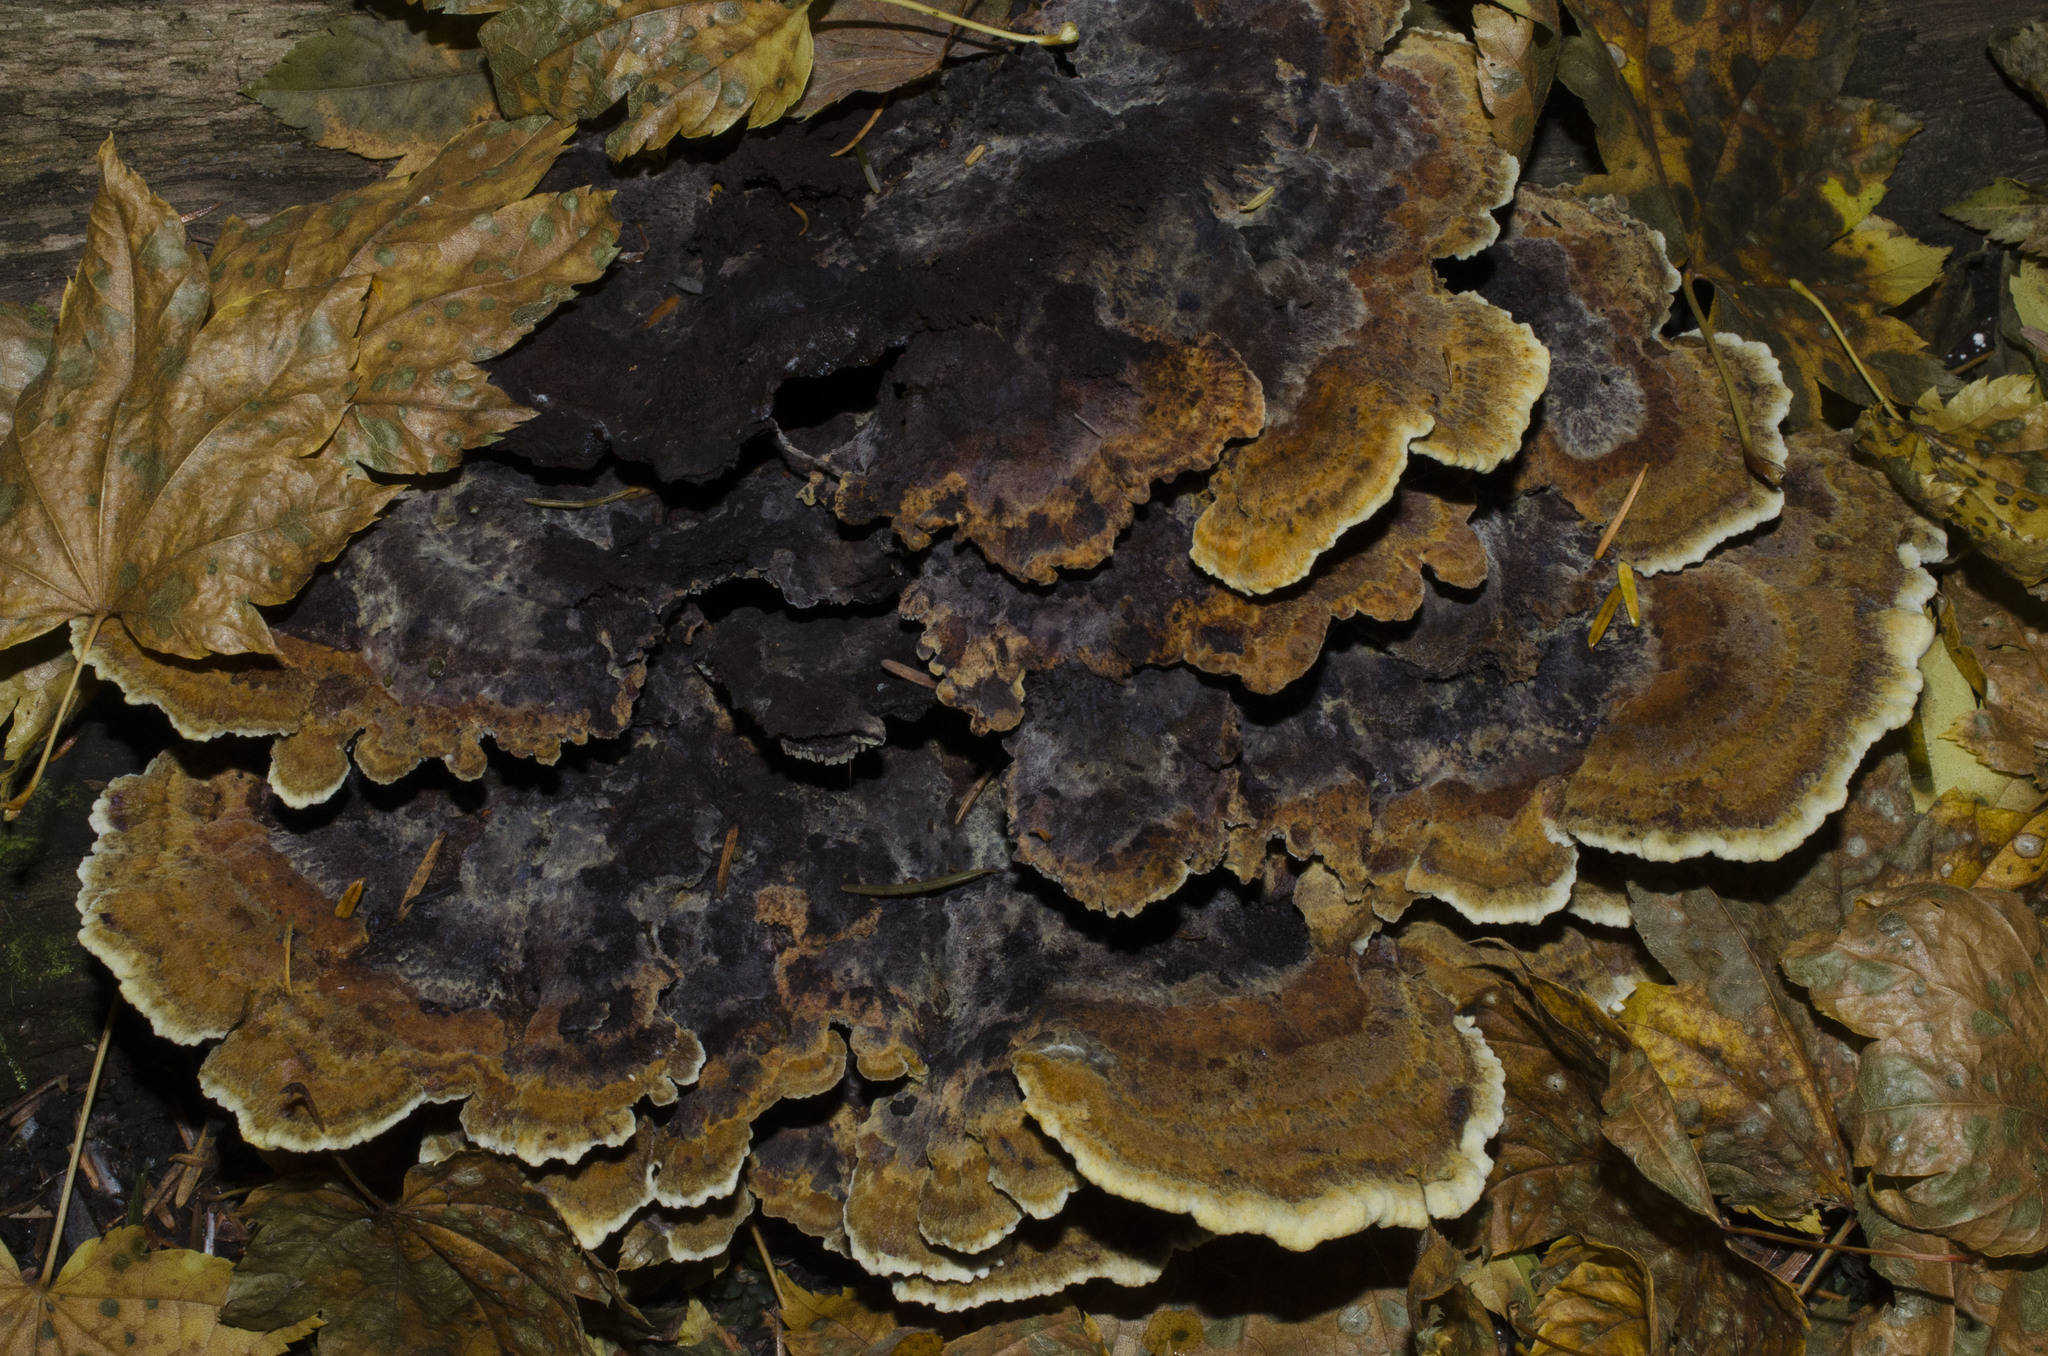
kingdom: Fungi
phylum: Basidiomycota
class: Agaricomycetes
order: Polyporales
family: Laetiporaceae
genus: Phaeolus
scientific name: Phaeolus schweinitzii
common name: Dyer's mazegill
